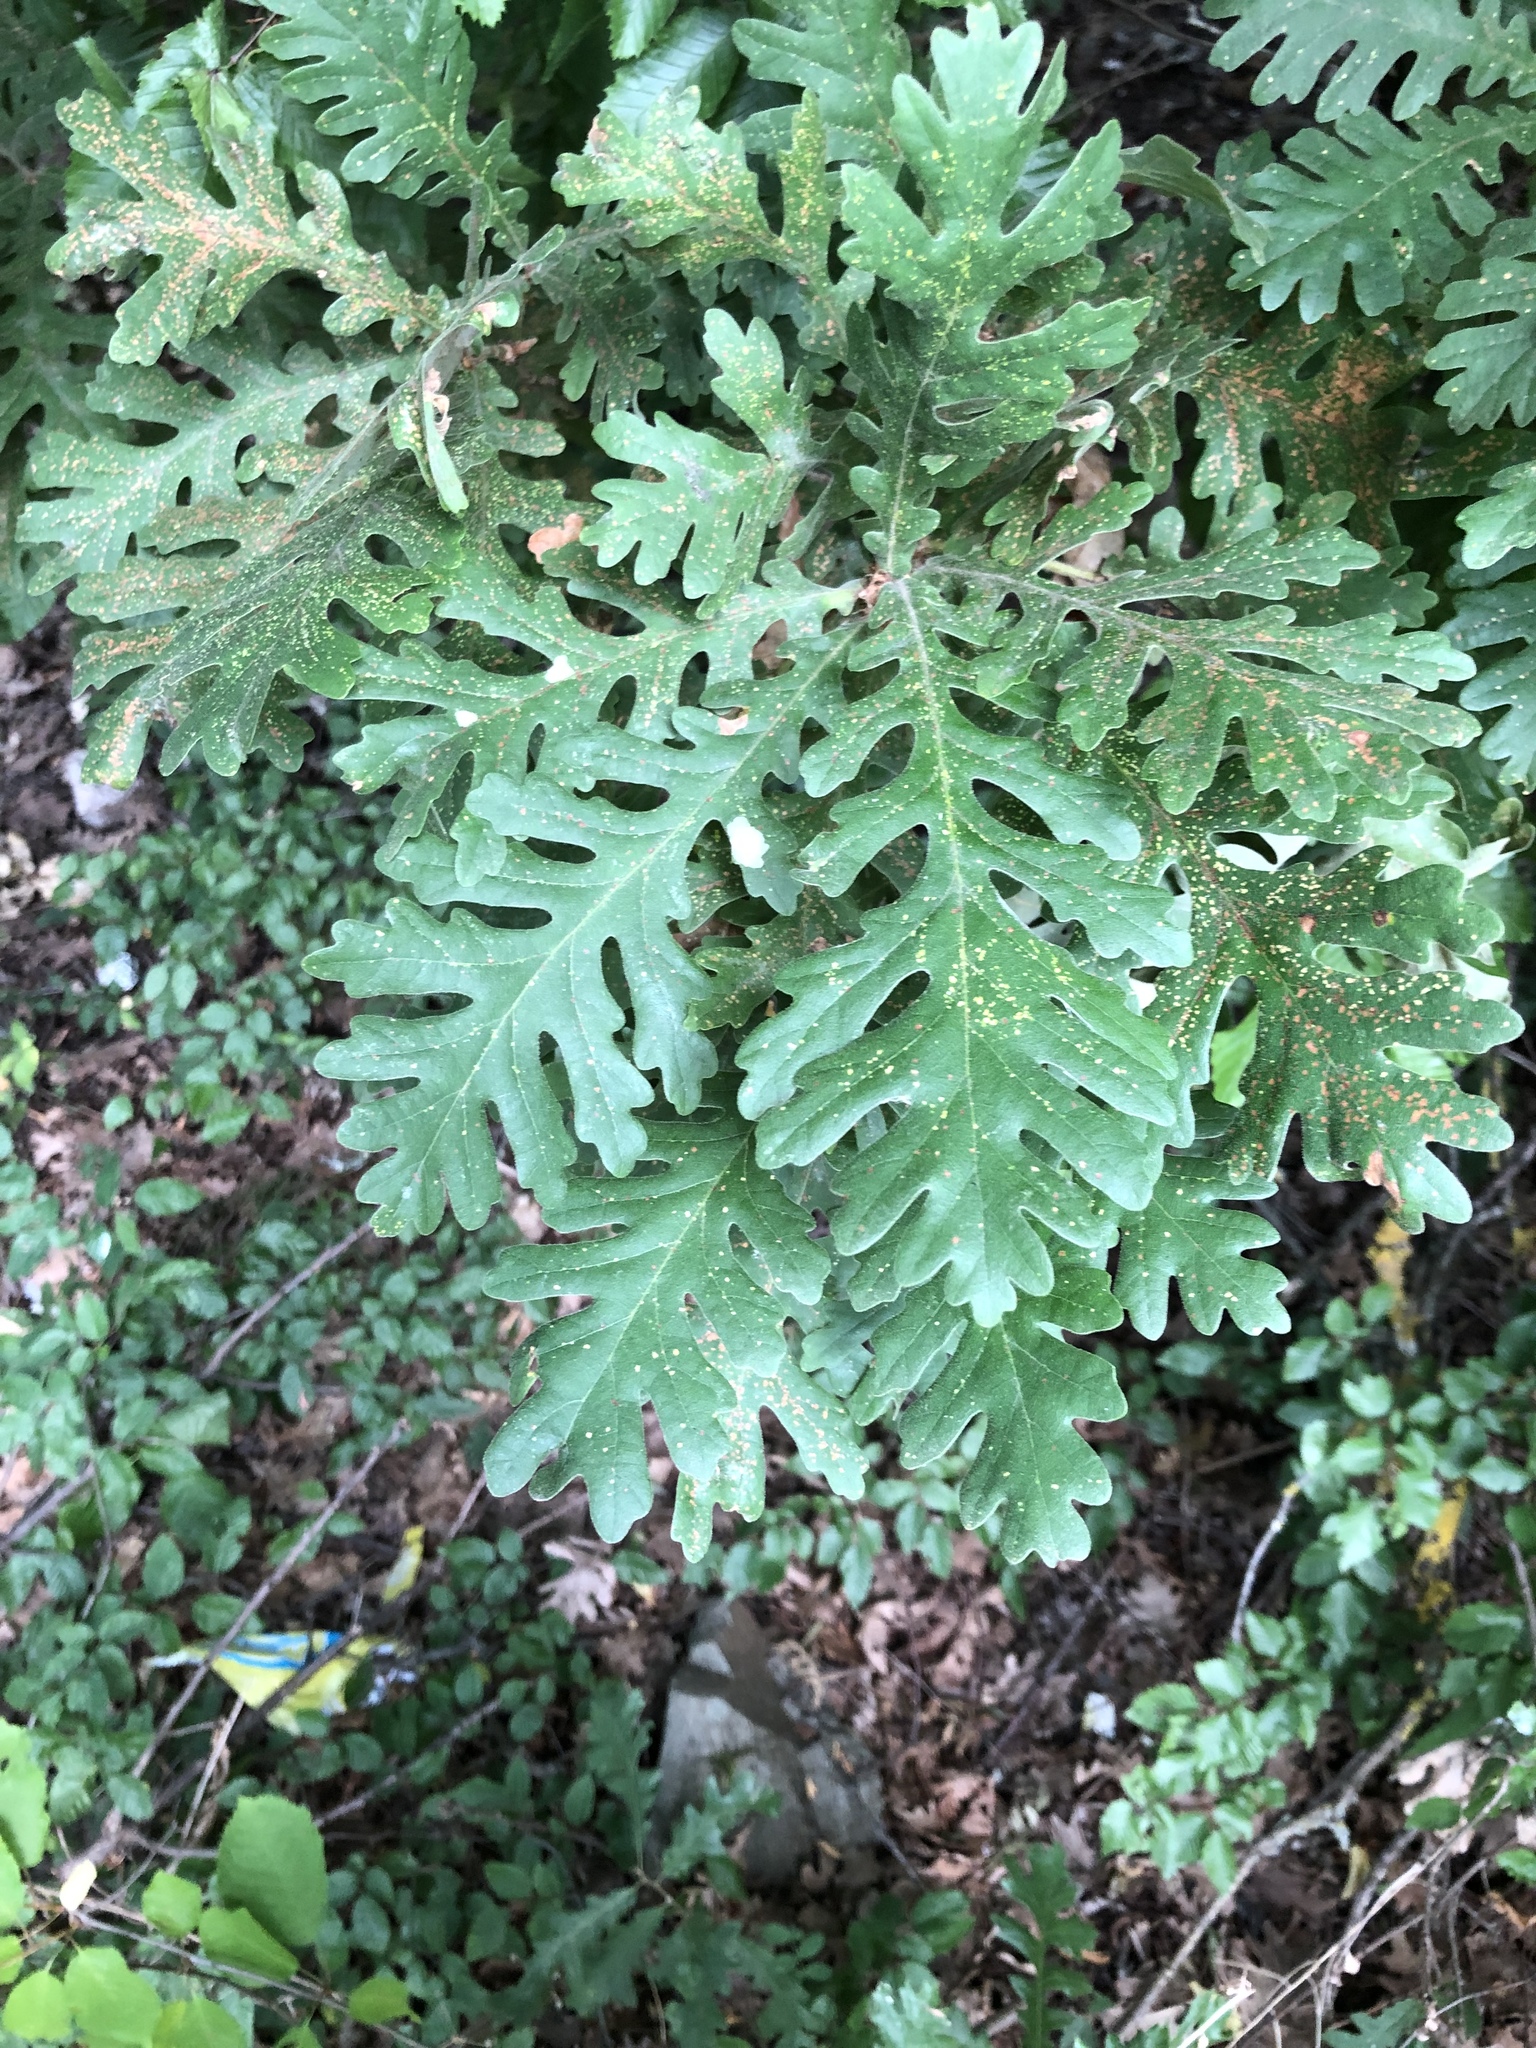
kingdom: Plantae
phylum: Tracheophyta
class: Magnoliopsida
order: Fagales
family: Fagaceae
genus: Quercus
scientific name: Quercus conferta
